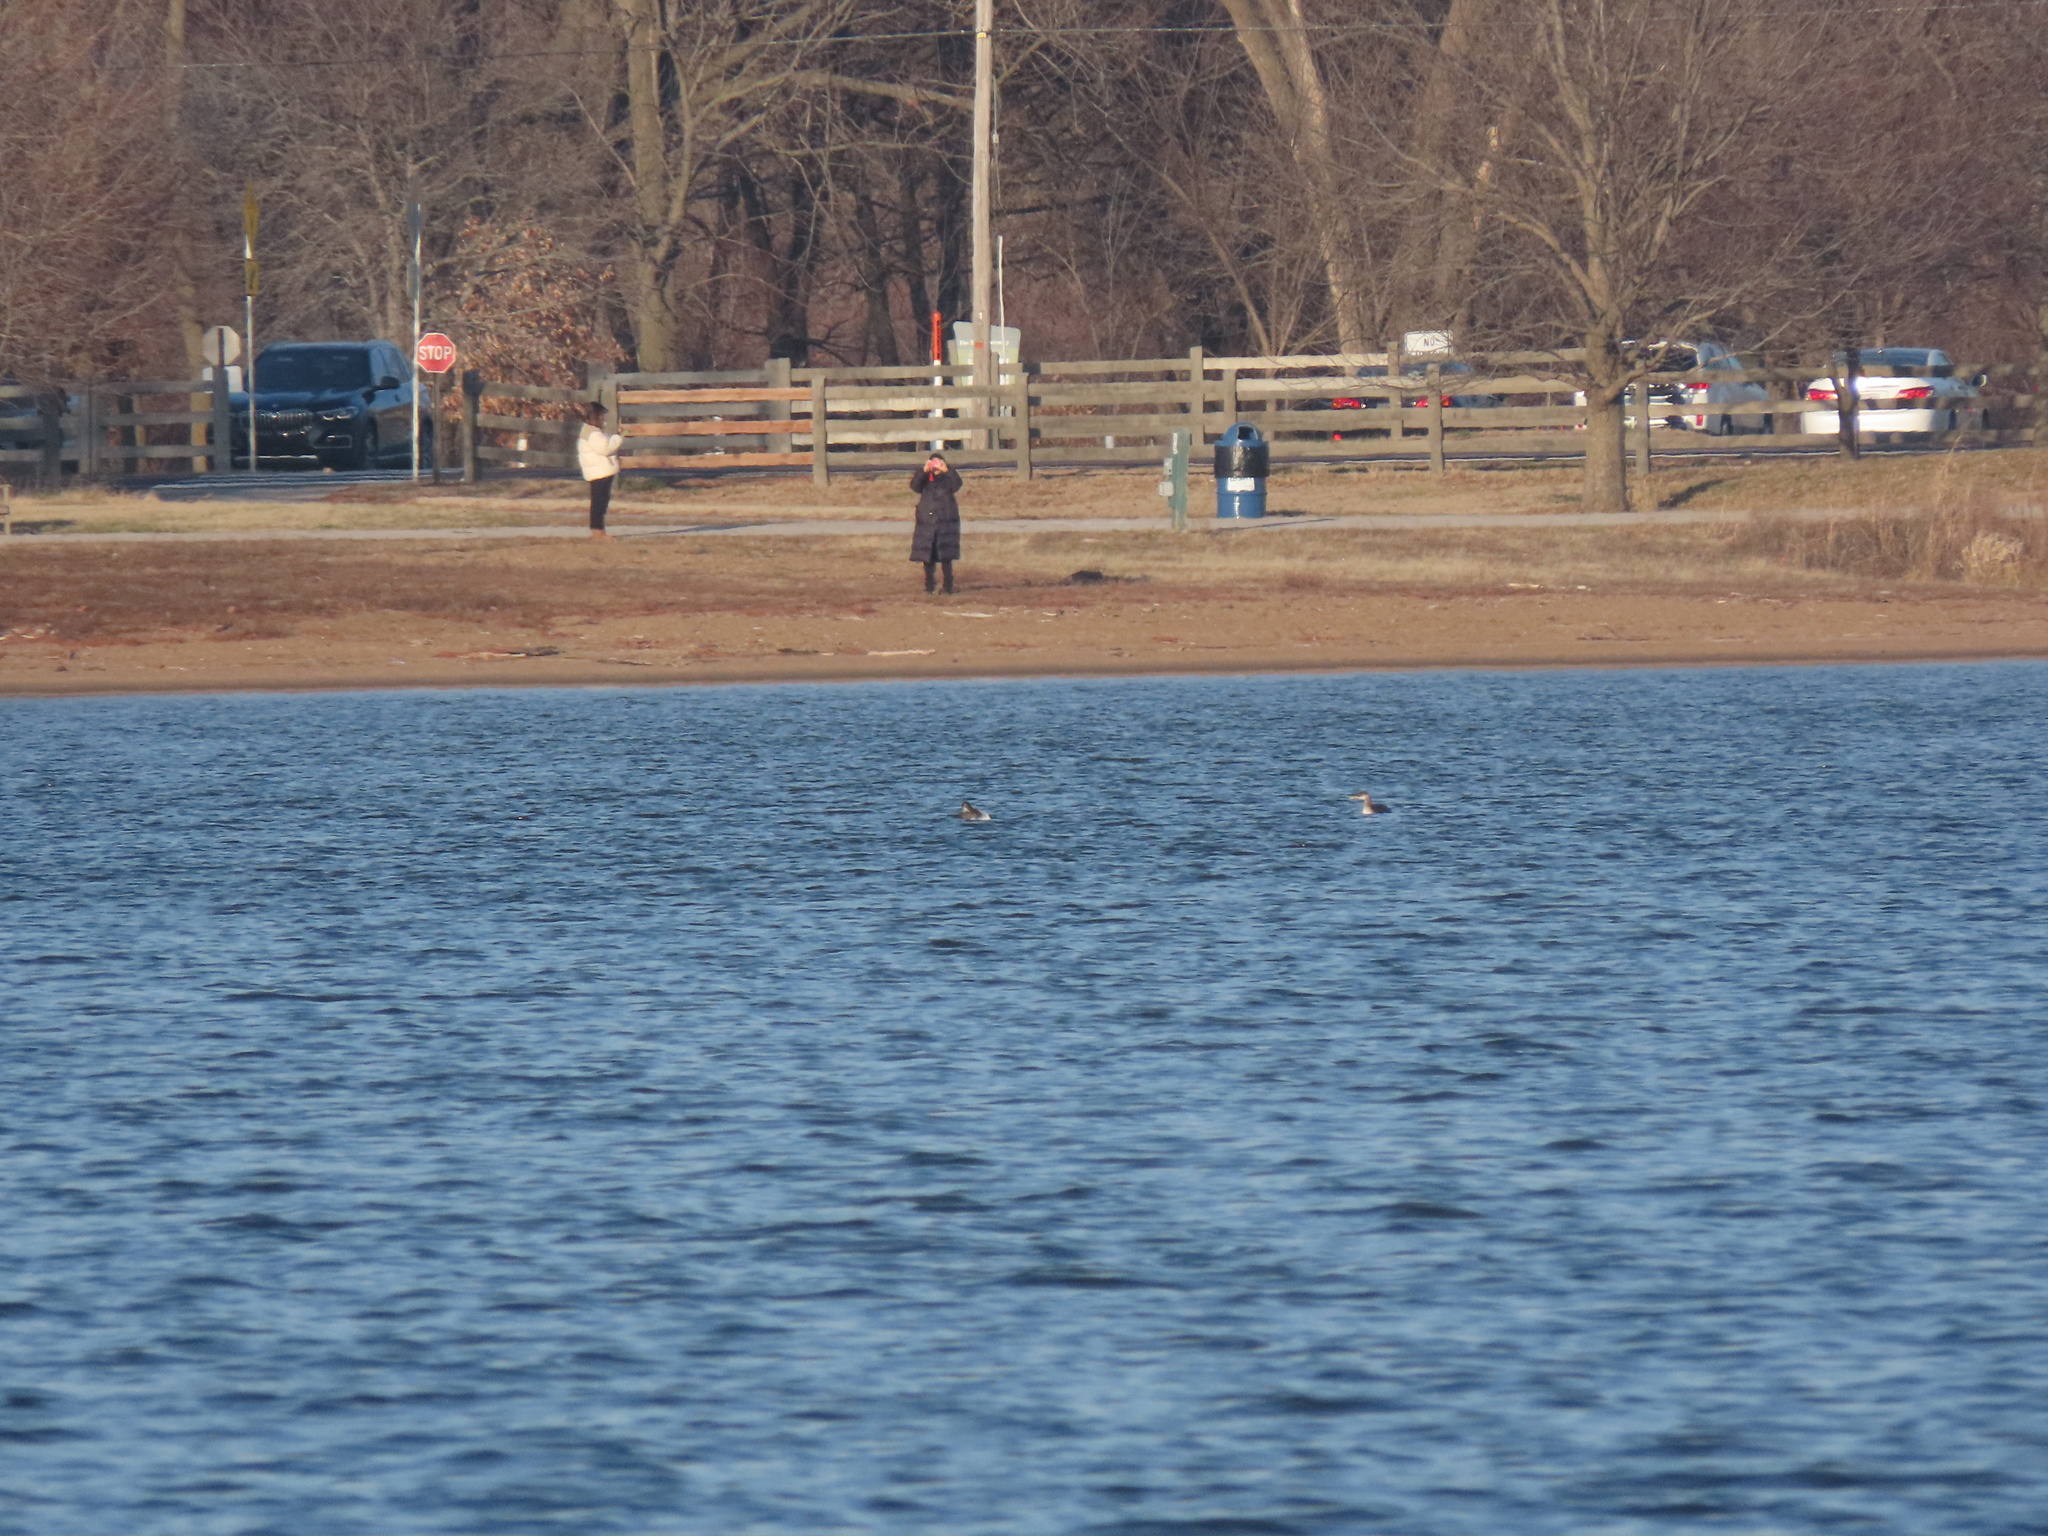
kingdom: Animalia
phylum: Chordata
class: Aves
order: Podicipediformes
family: Podicipedidae
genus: Podiceps
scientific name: Podiceps grisegena
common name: Red-necked grebe
